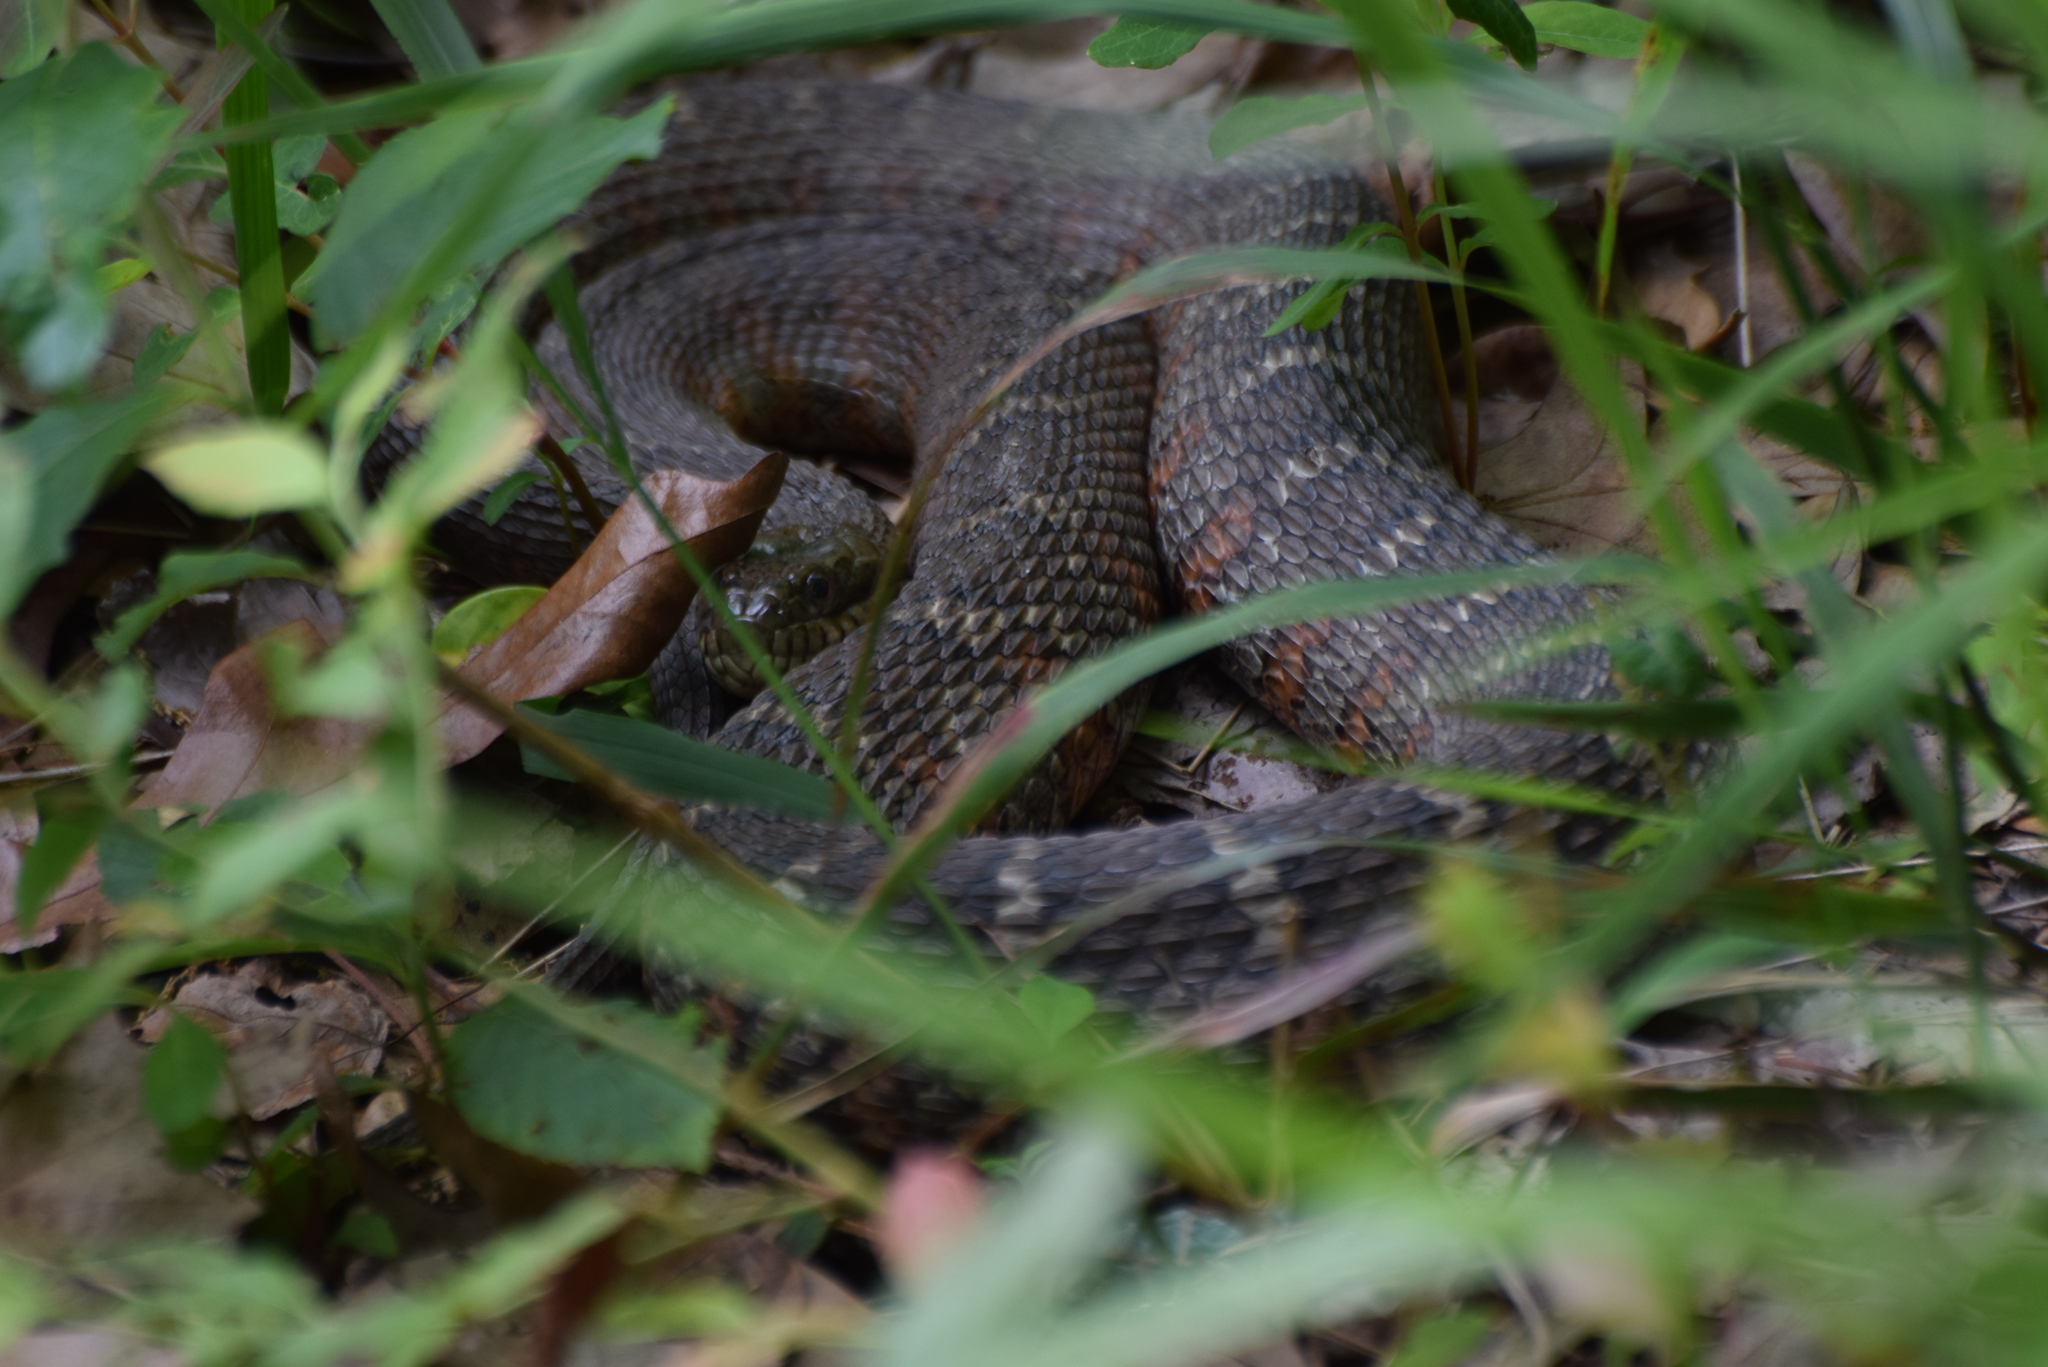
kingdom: Animalia
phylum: Chordata
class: Squamata
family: Colubridae
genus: Nerodia
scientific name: Nerodia sipedon
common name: Northern water snake
